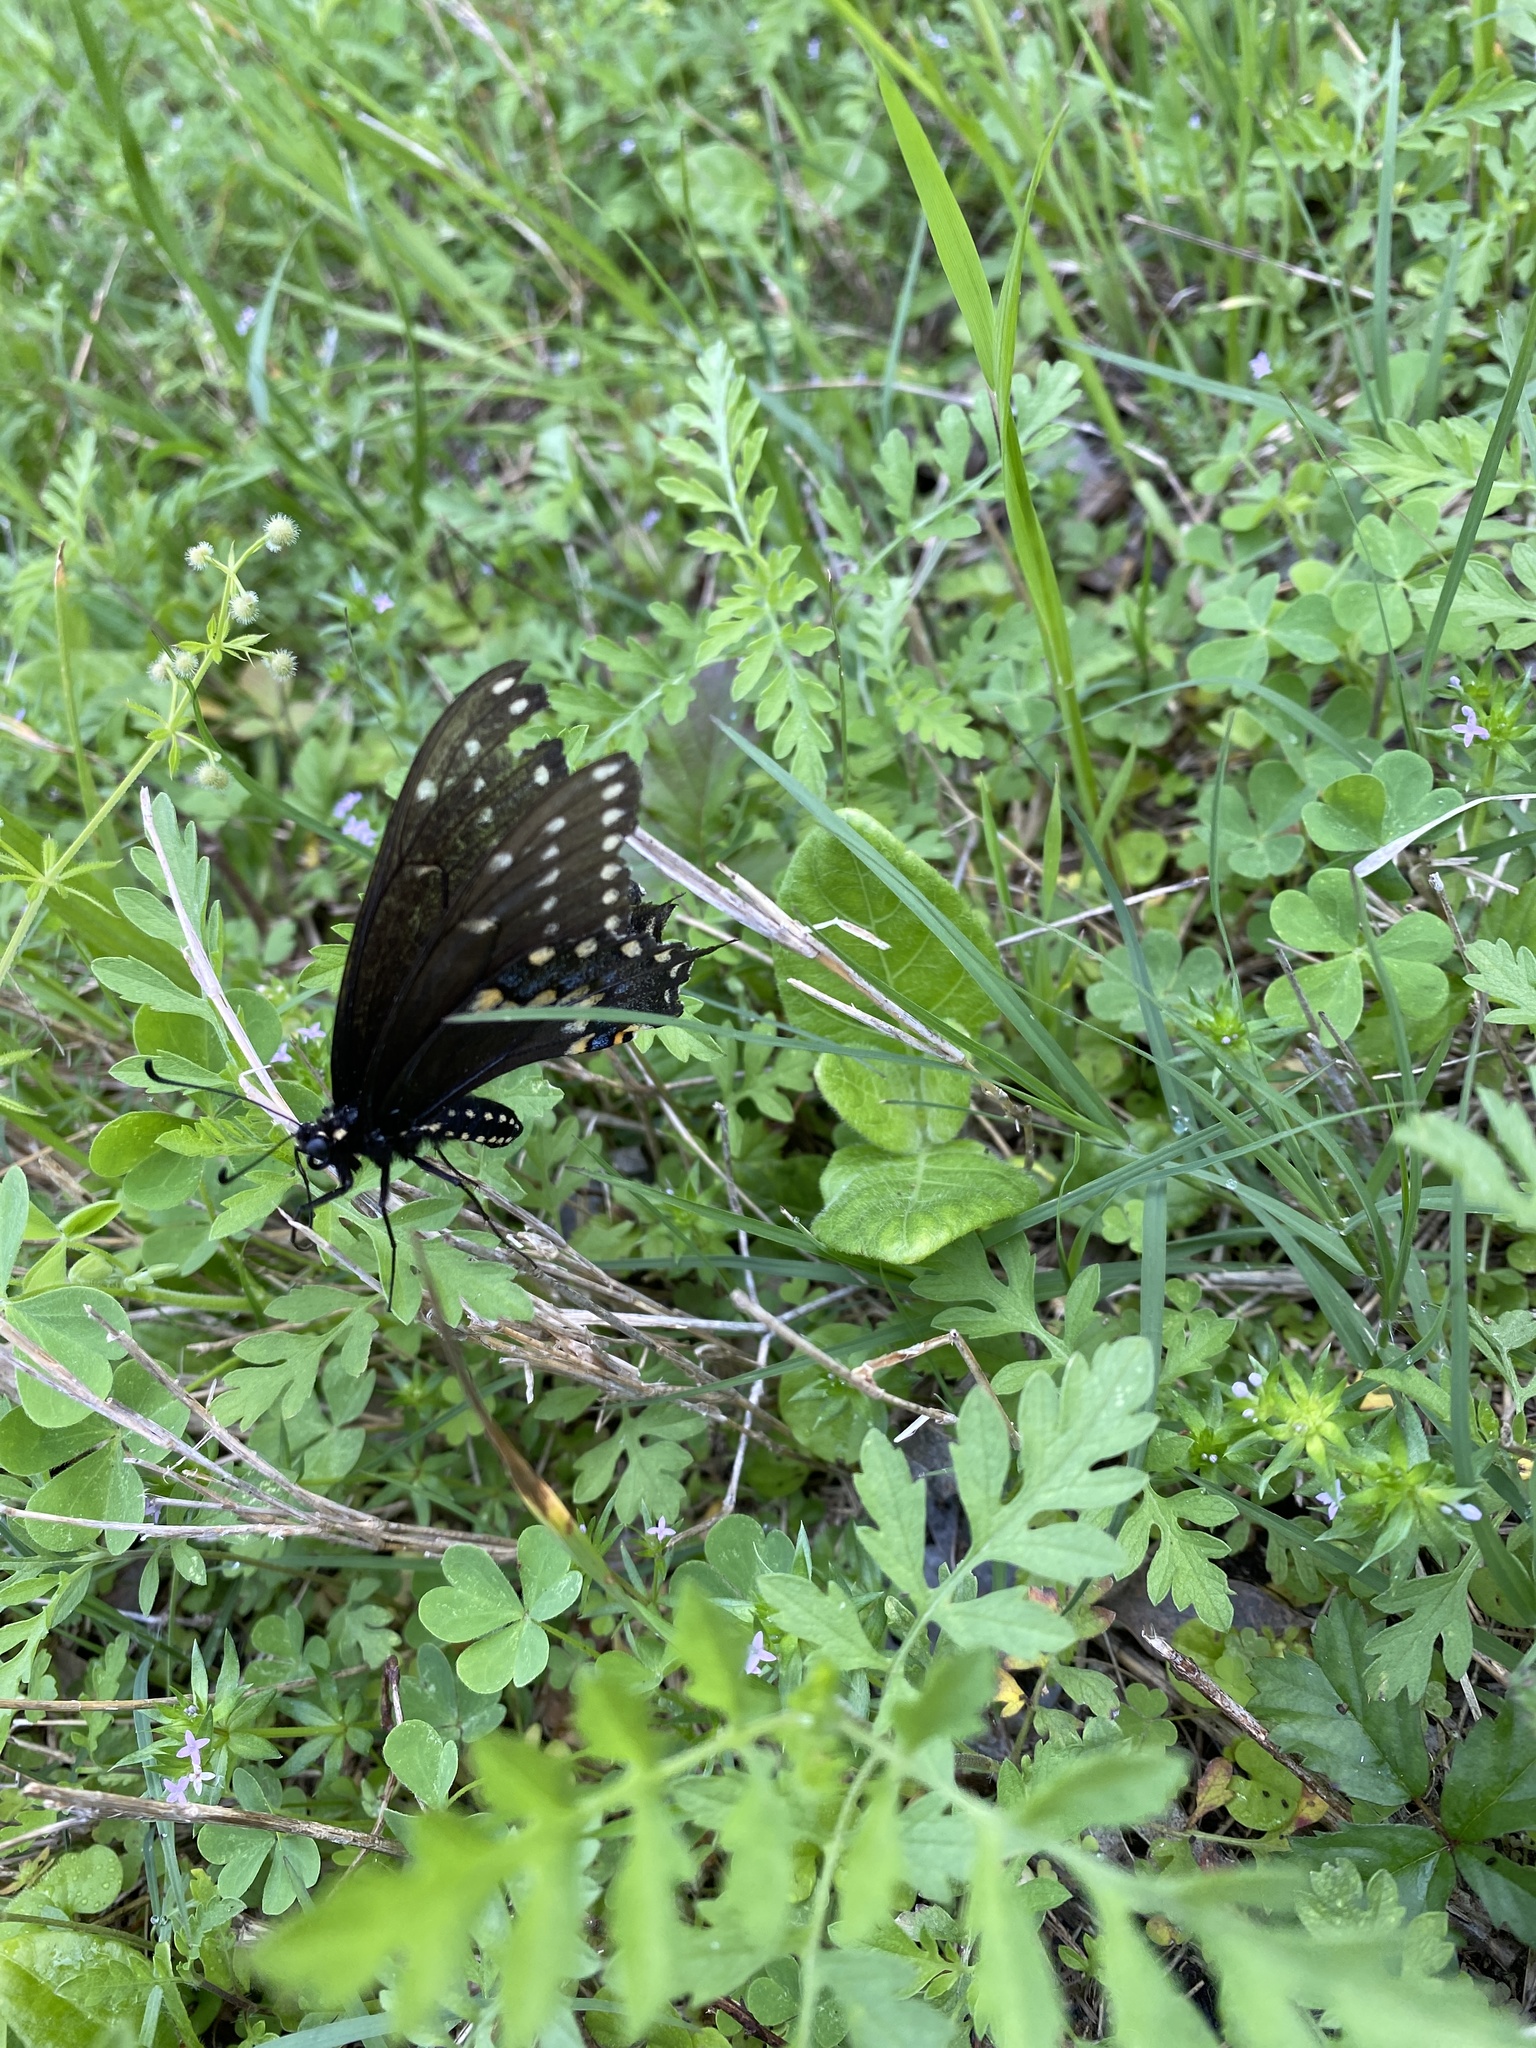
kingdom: Animalia
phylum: Arthropoda
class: Insecta
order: Lepidoptera
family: Papilionidae
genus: Papilio
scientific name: Papilio polyxenes
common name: Black swallowtail
